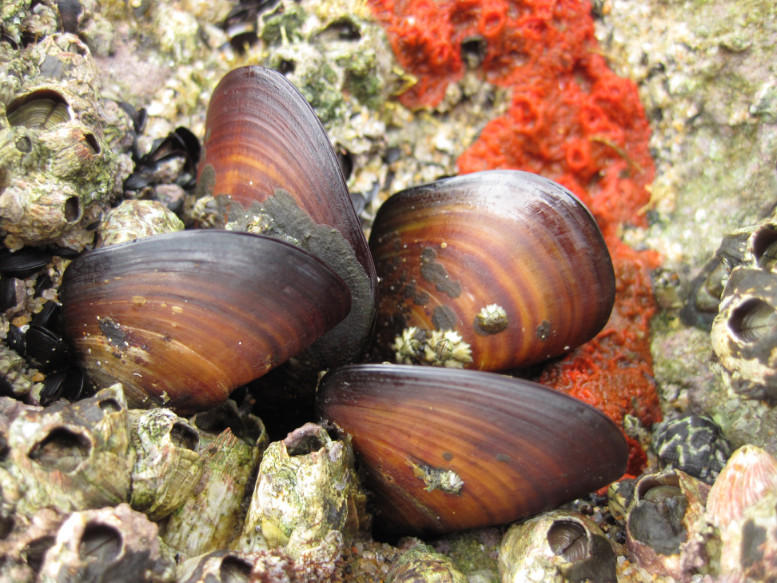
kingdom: Animalia
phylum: Mollusca
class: Bivalvia
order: Mytilida
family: Mytilidae
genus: Perna
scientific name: Perna perna
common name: Mexilhao mussel
